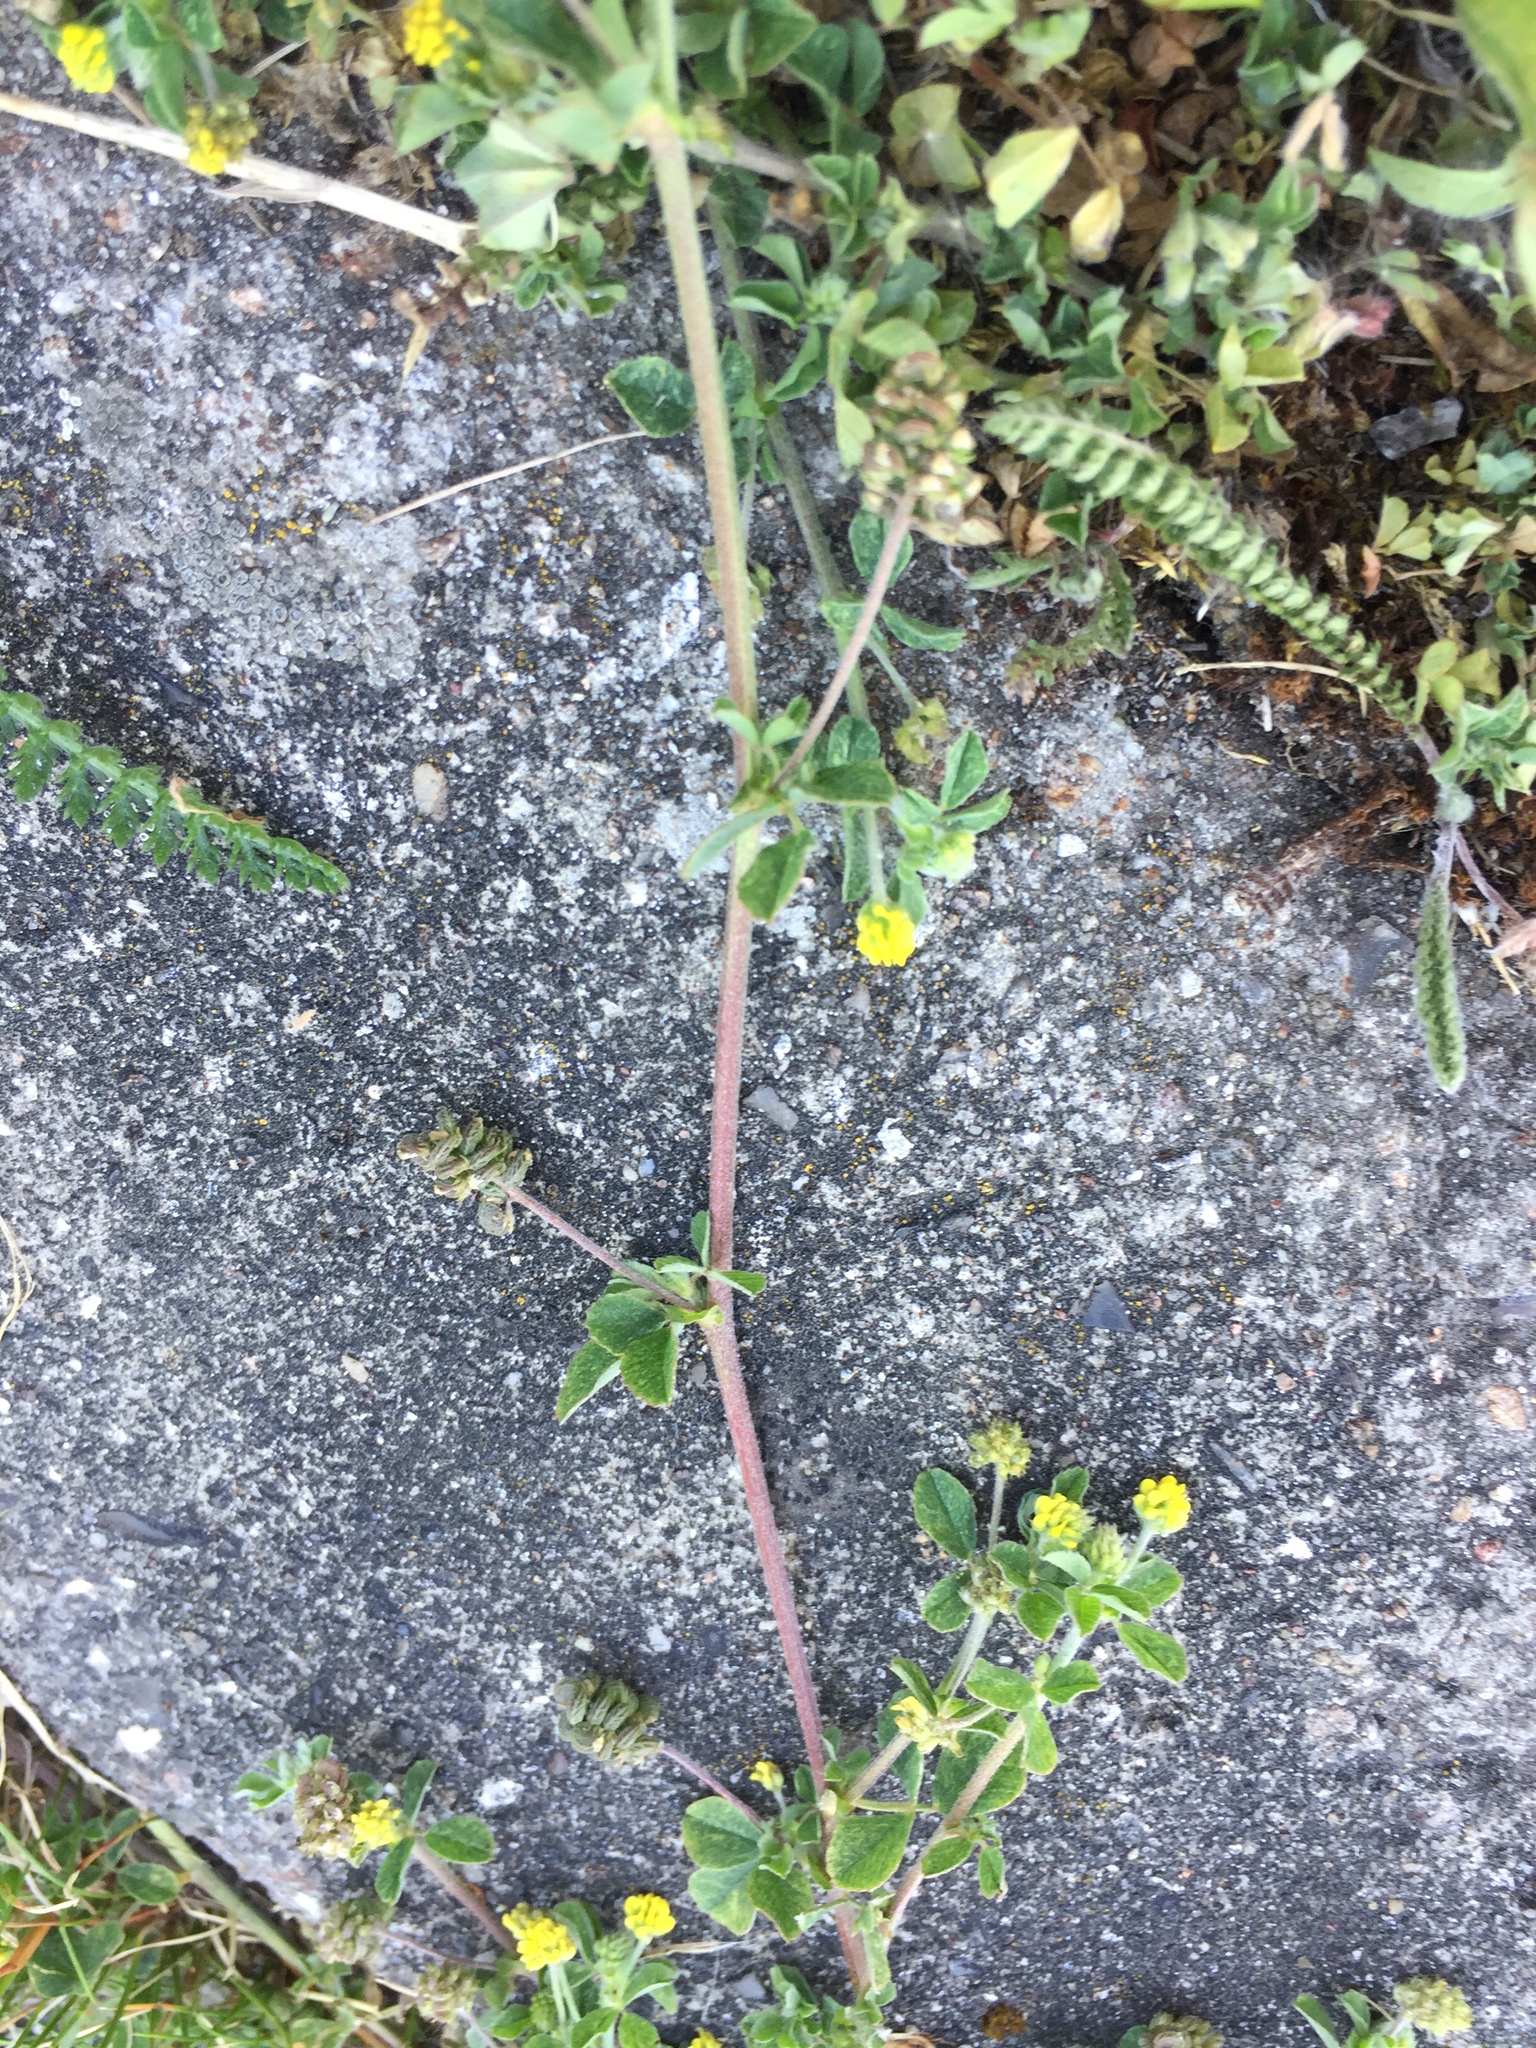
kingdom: Plantae
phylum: Tracheophyta
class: Magnoliopsida
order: Fabales
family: Fabaceae
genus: Medicago
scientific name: Medicago lupulina
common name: Black medick
